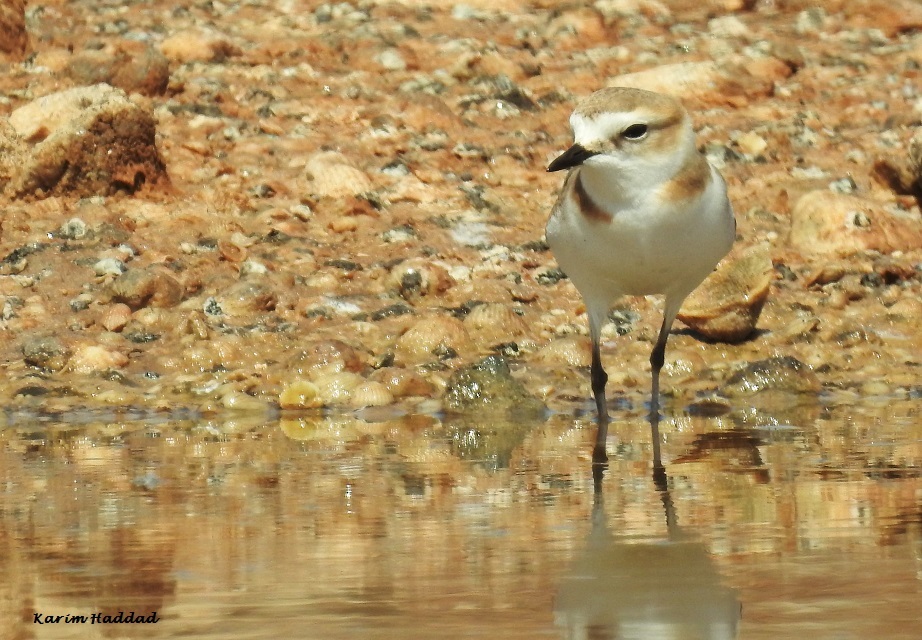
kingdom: Animalia
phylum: Chordata
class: Aves
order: Charadriiformes
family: Charadriidae
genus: Charadrius
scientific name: Charadrius alexandrinus
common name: Kentish plover
